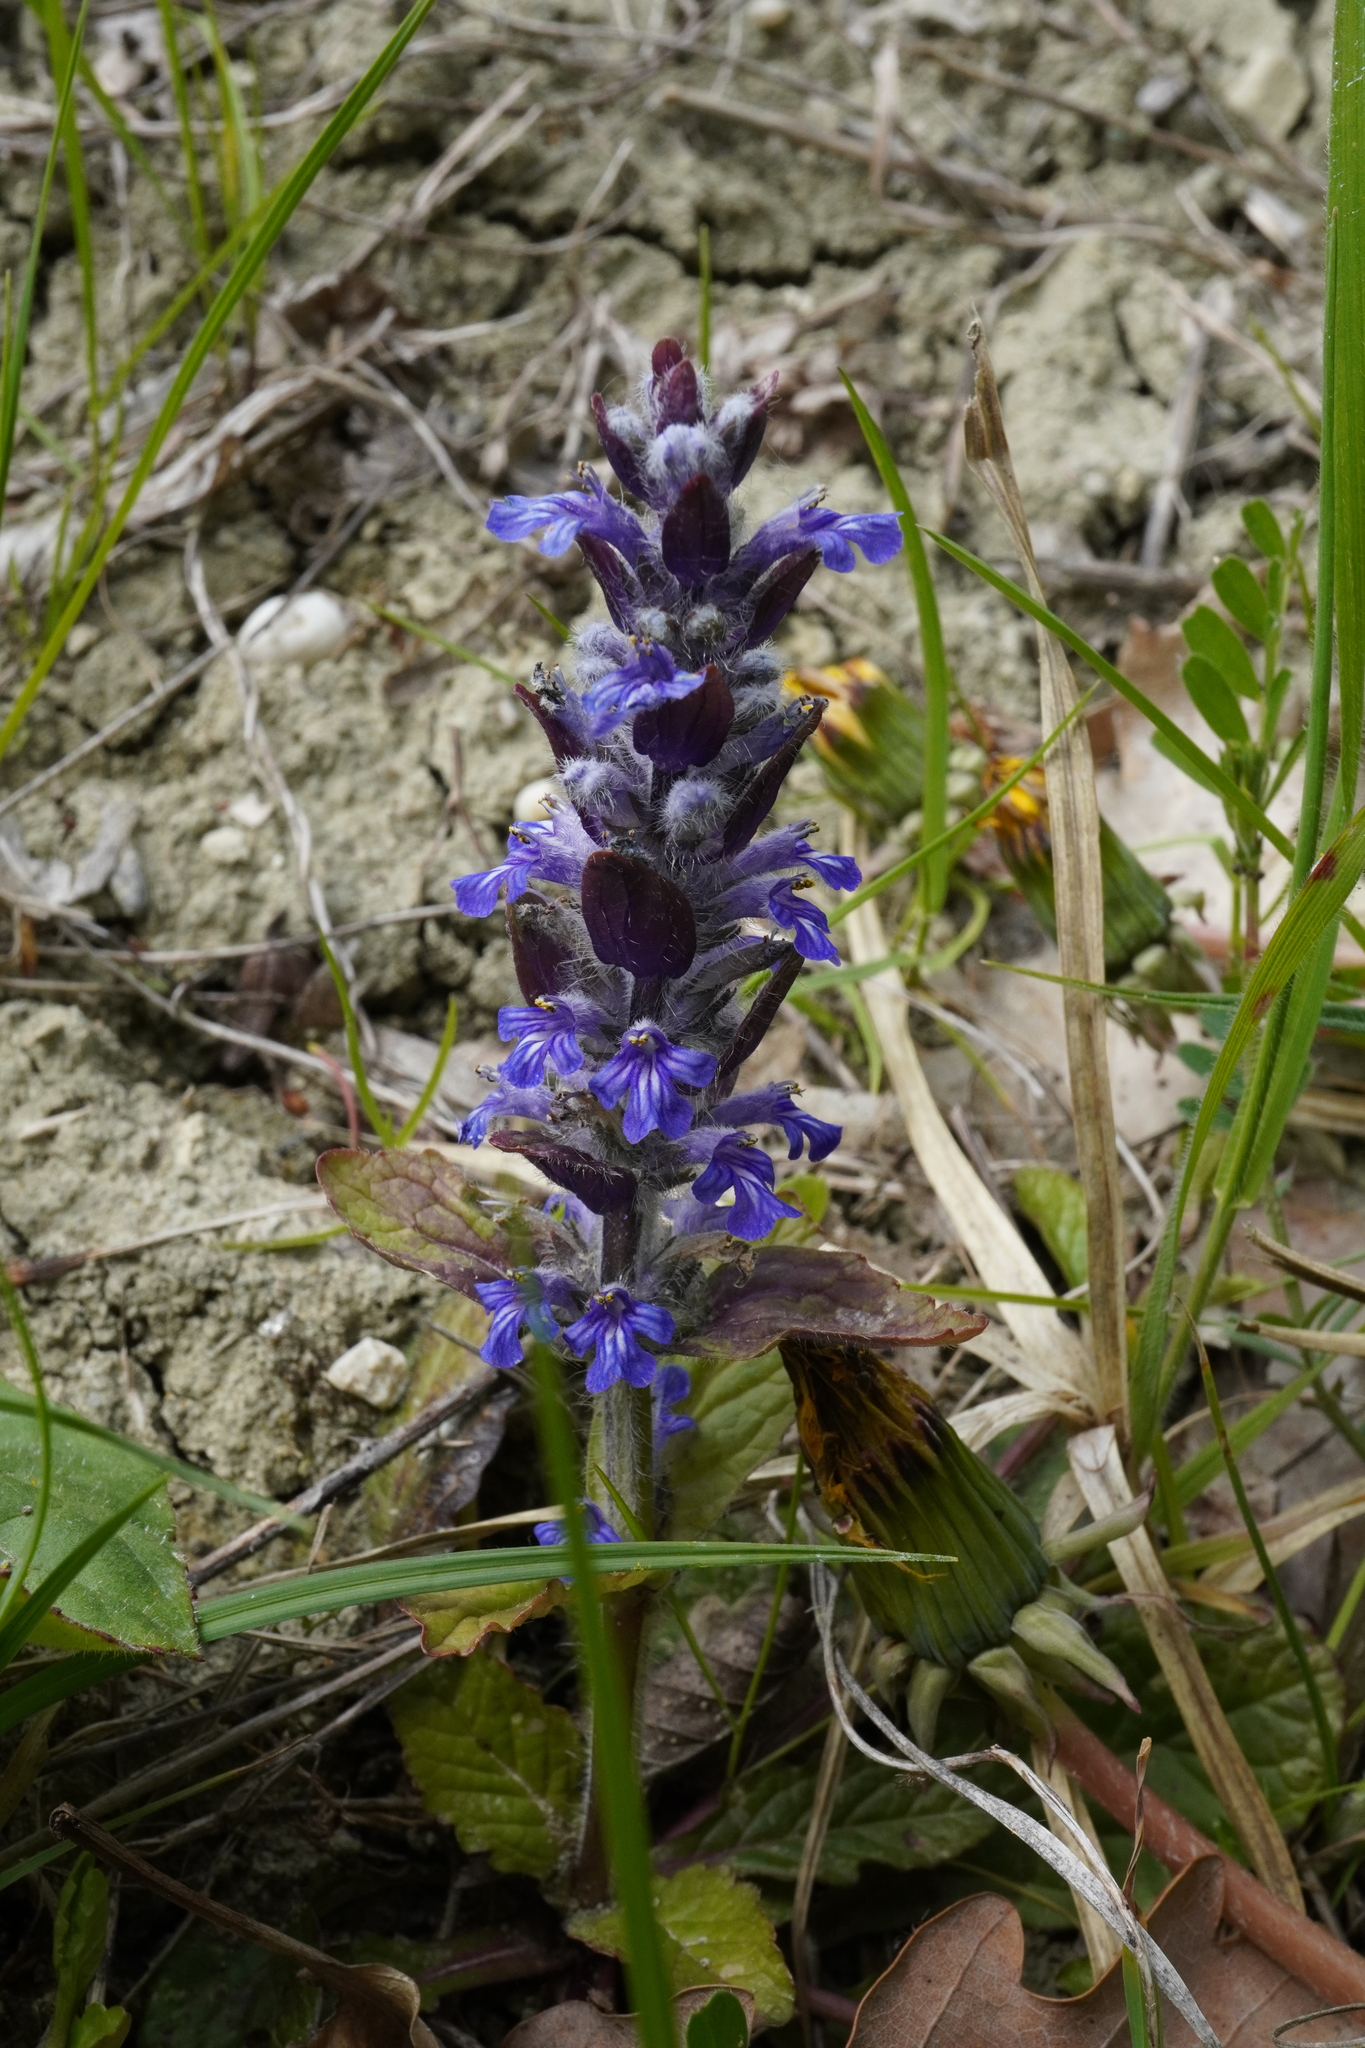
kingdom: Plantae
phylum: Tracheophyta
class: Magnoliopsida
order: Lamiales
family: Lamiaceae
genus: Ajuga
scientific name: Ajuga reptans
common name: Bugle
